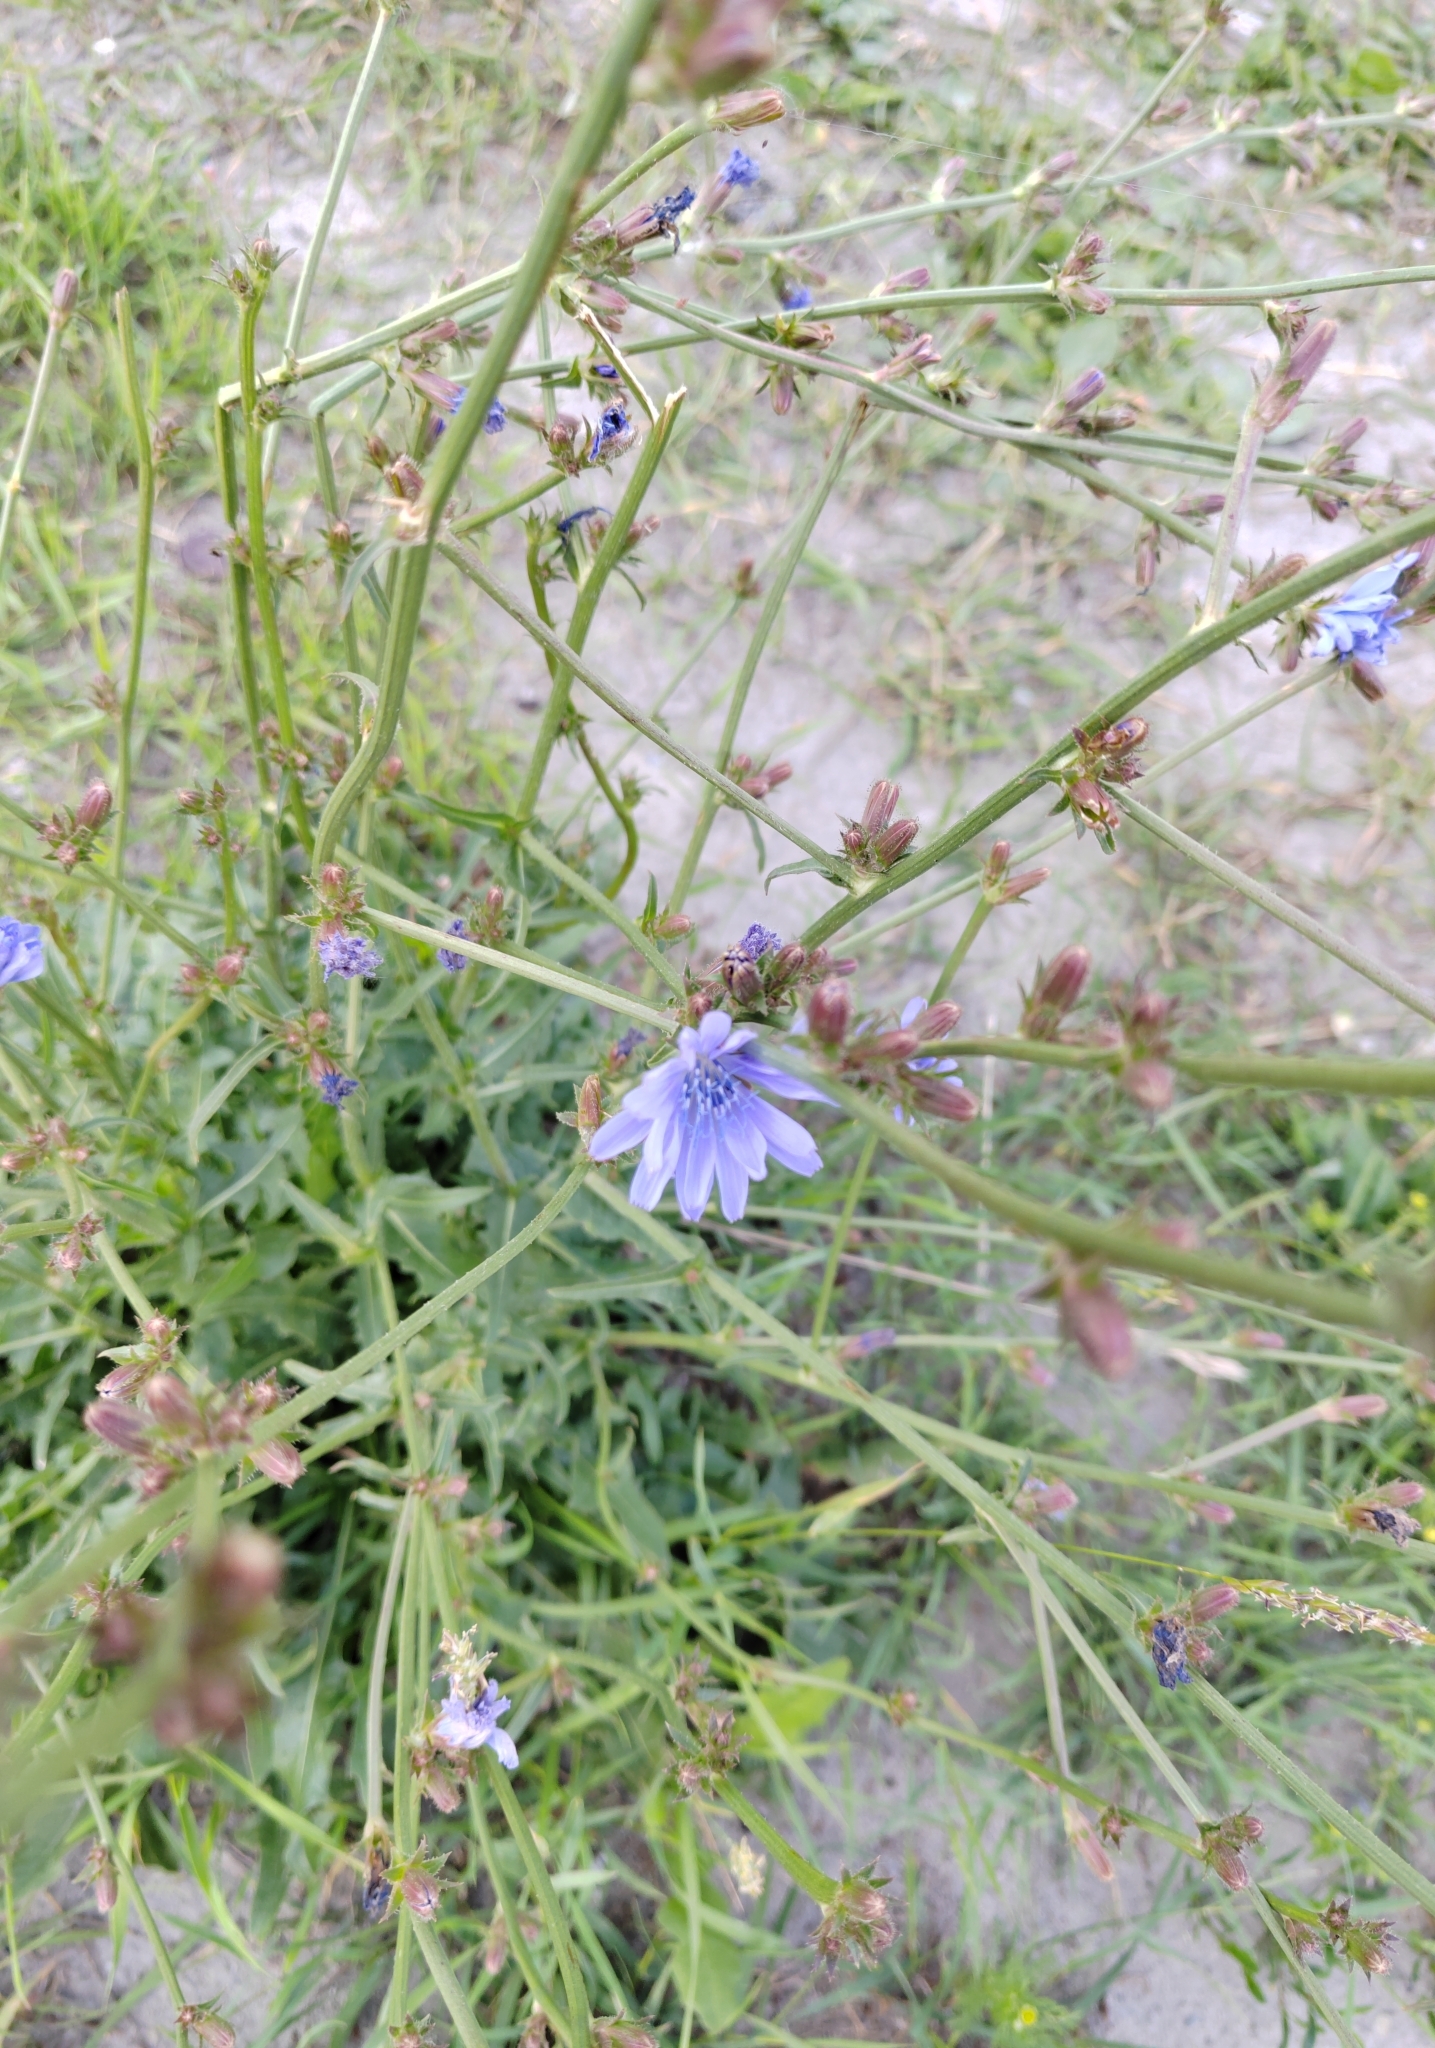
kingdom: Plantae
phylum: Tracheophyta
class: Magnoliopsida
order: Asterales
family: Asteraceae
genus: Cichorium
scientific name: Cichorium intybus
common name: Chicory
